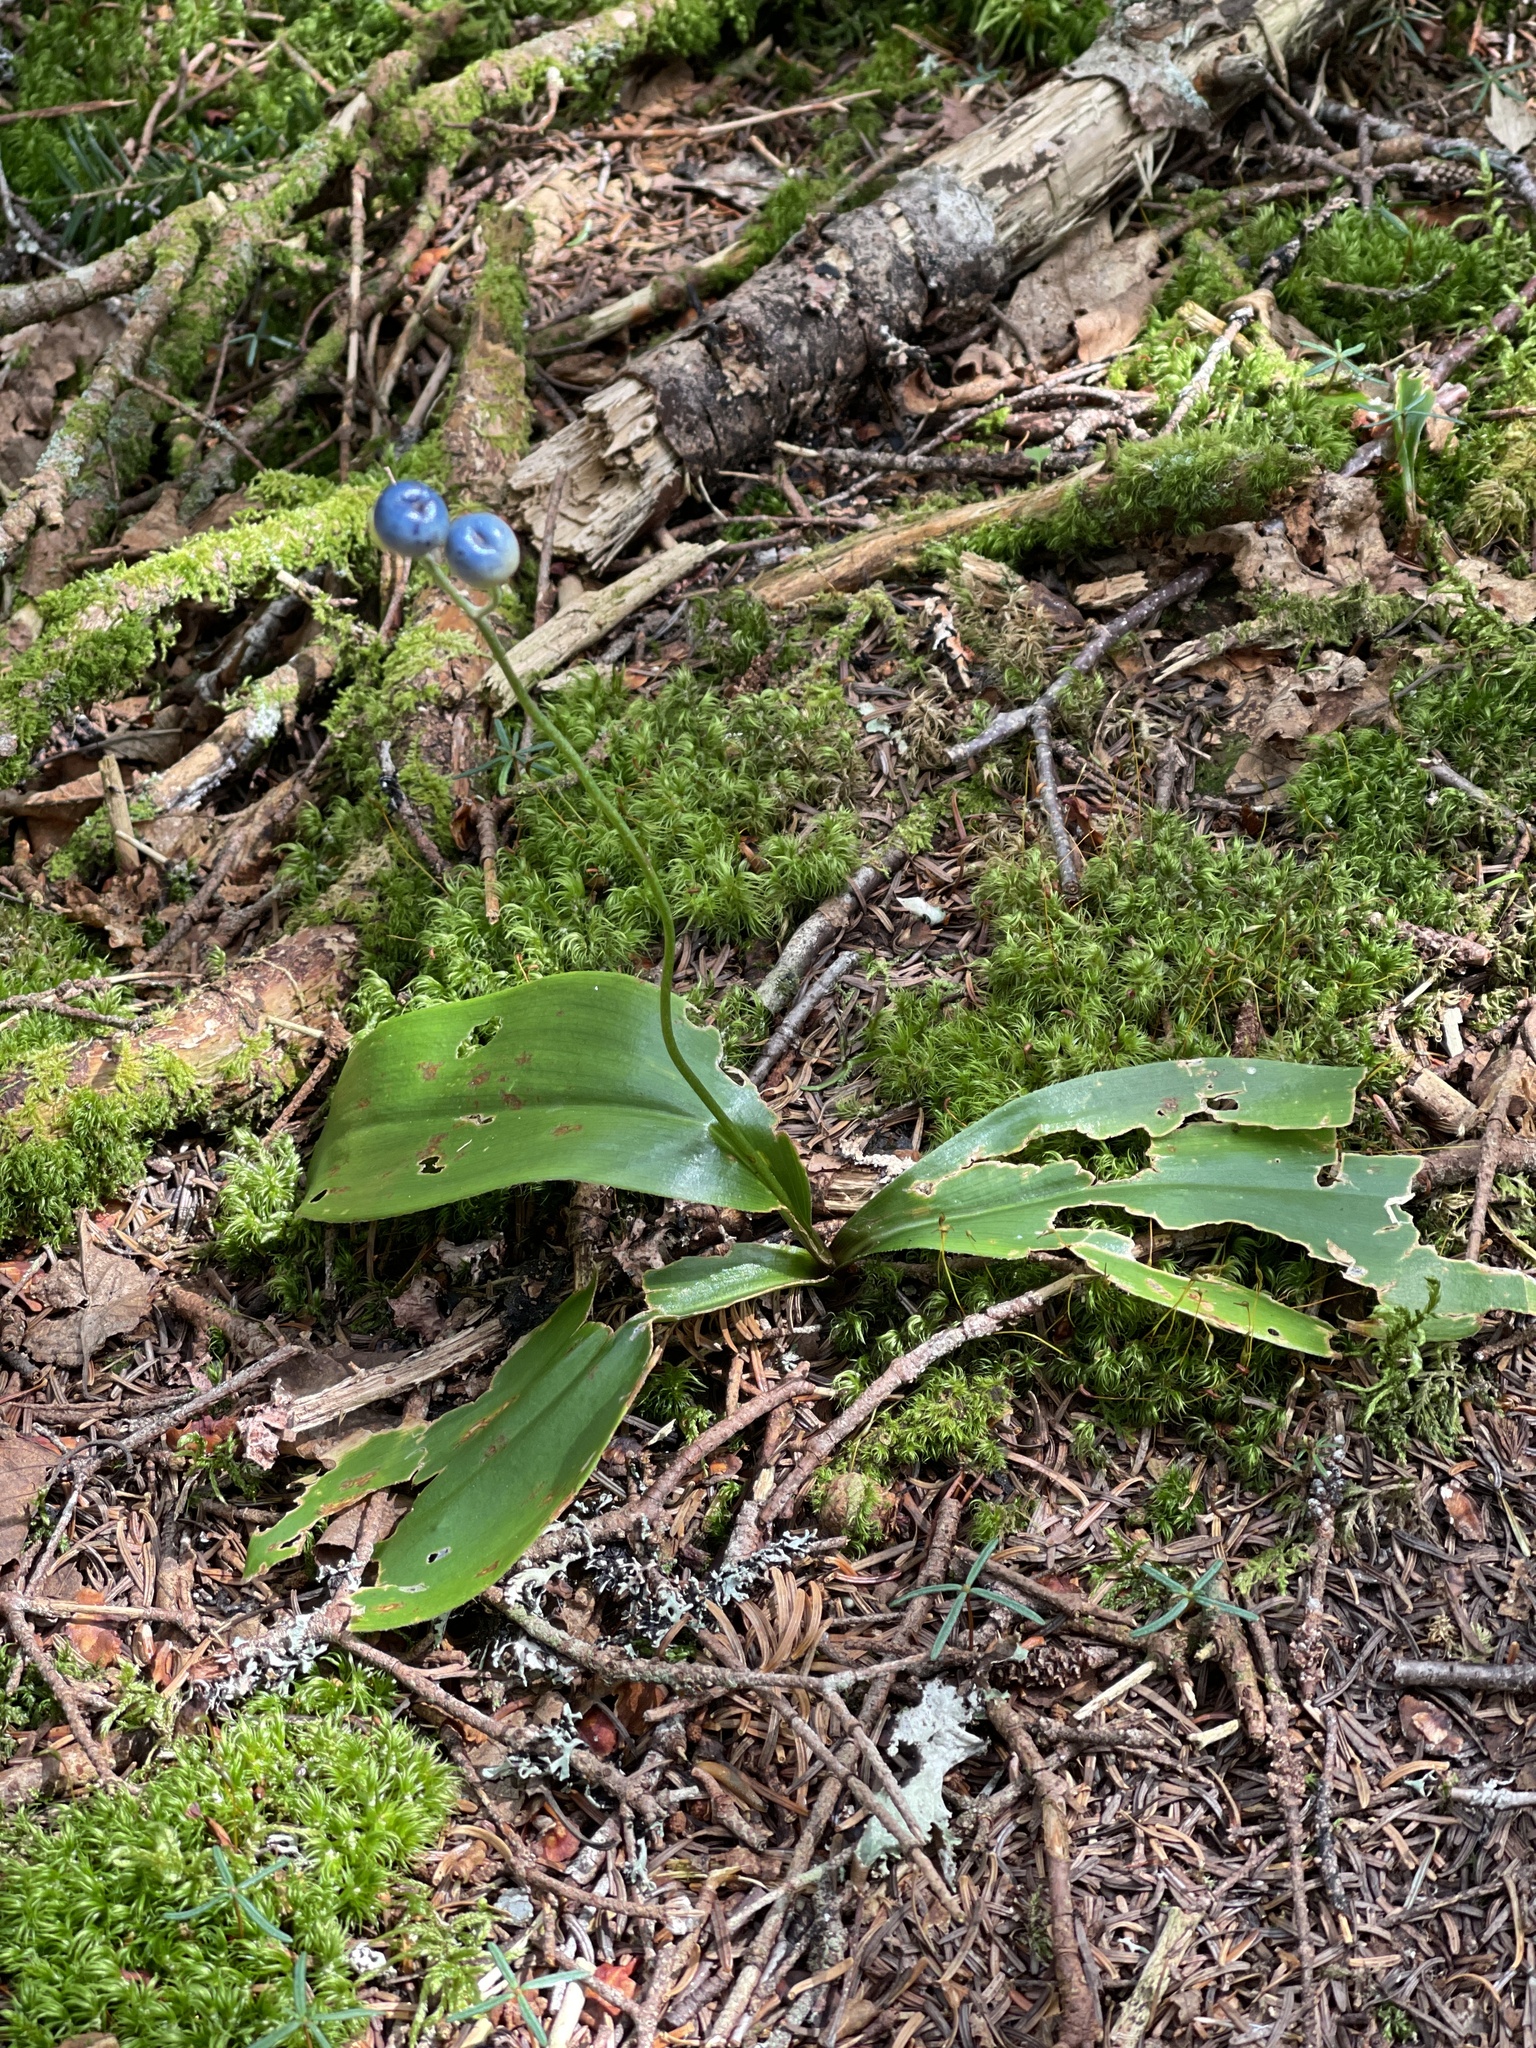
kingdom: Plantae
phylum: Tracheophyta
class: Liliopsida
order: Liliales
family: Liliaceae
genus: Clintonia
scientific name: Clintonia borealis
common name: Yellow clintonia
